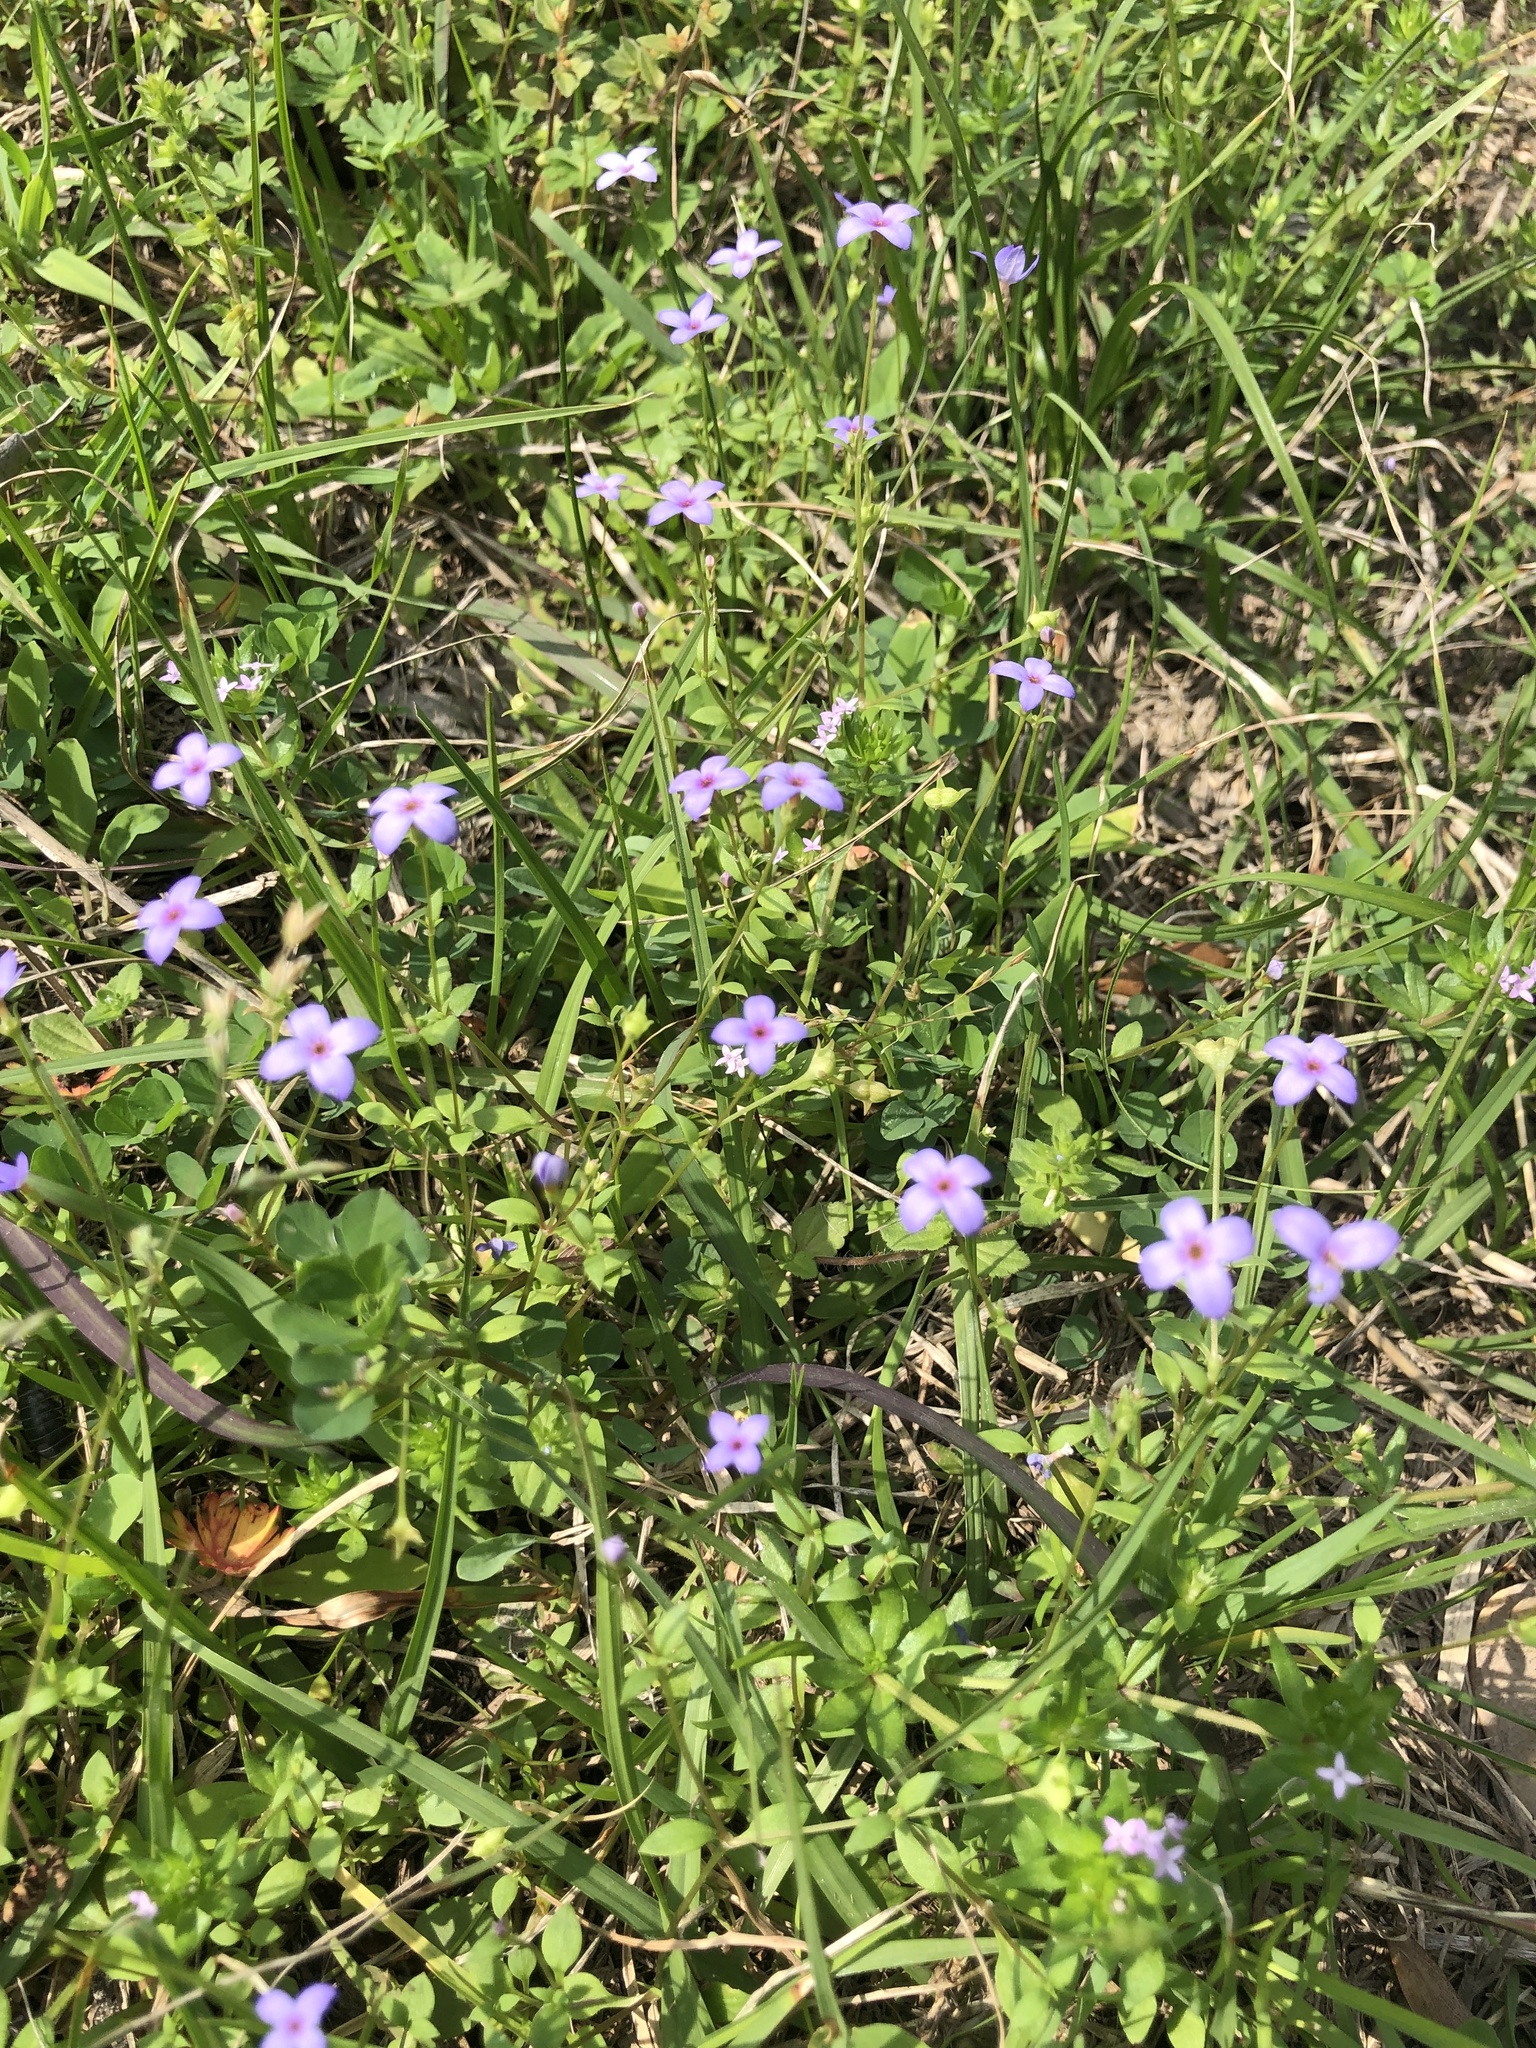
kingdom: Plantae
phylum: Tracheophyta
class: Magnoliopsida
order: Gentianales
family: Rubiaceae
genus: Houstonia
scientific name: Houstonia pusilla
